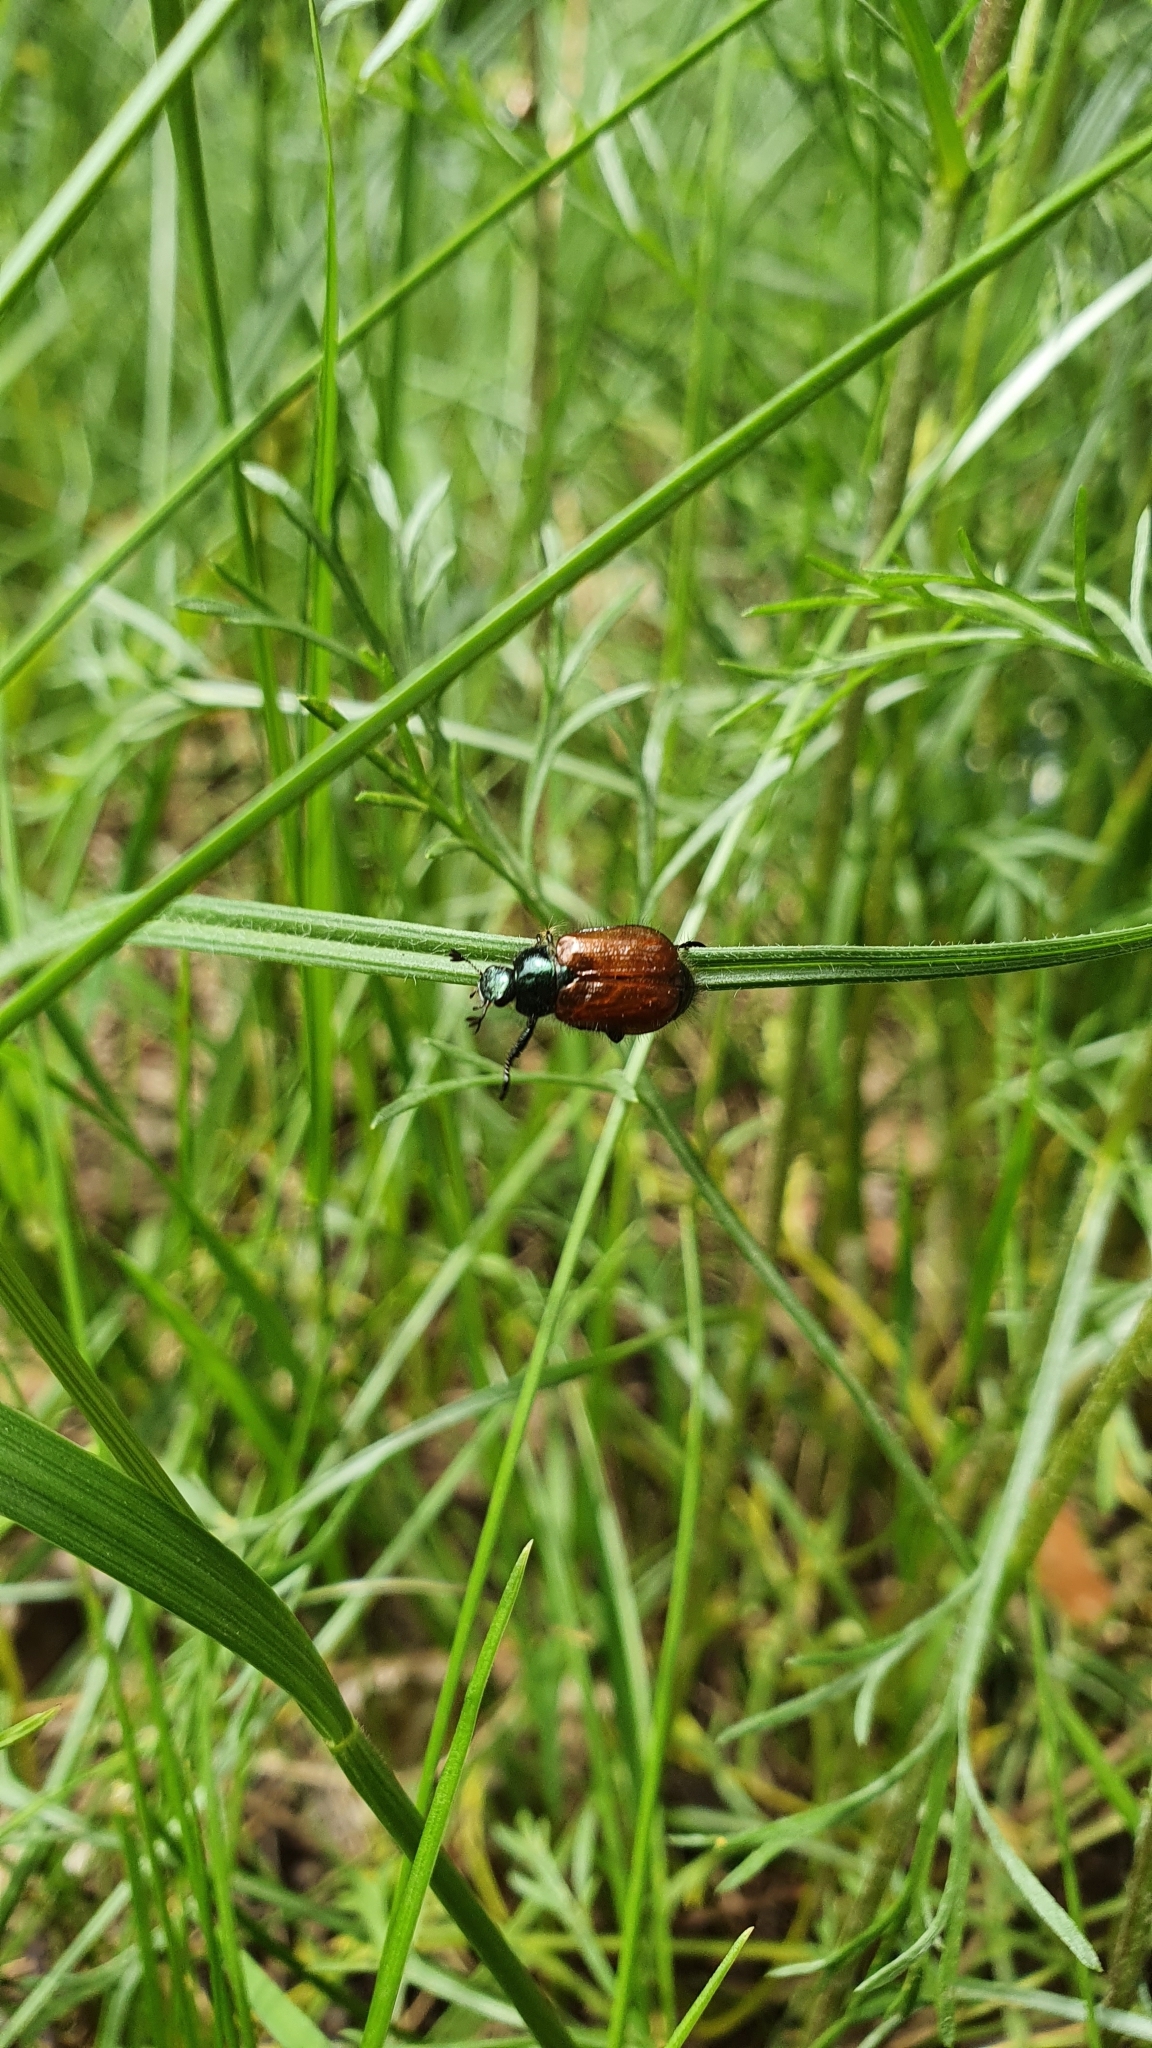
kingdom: Animalia
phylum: Arthropoda
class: Insecta
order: Coleoptera
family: Scarabaeidae
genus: Phyllopertha
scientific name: Phyllopertha horticola
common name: Garden chafer
